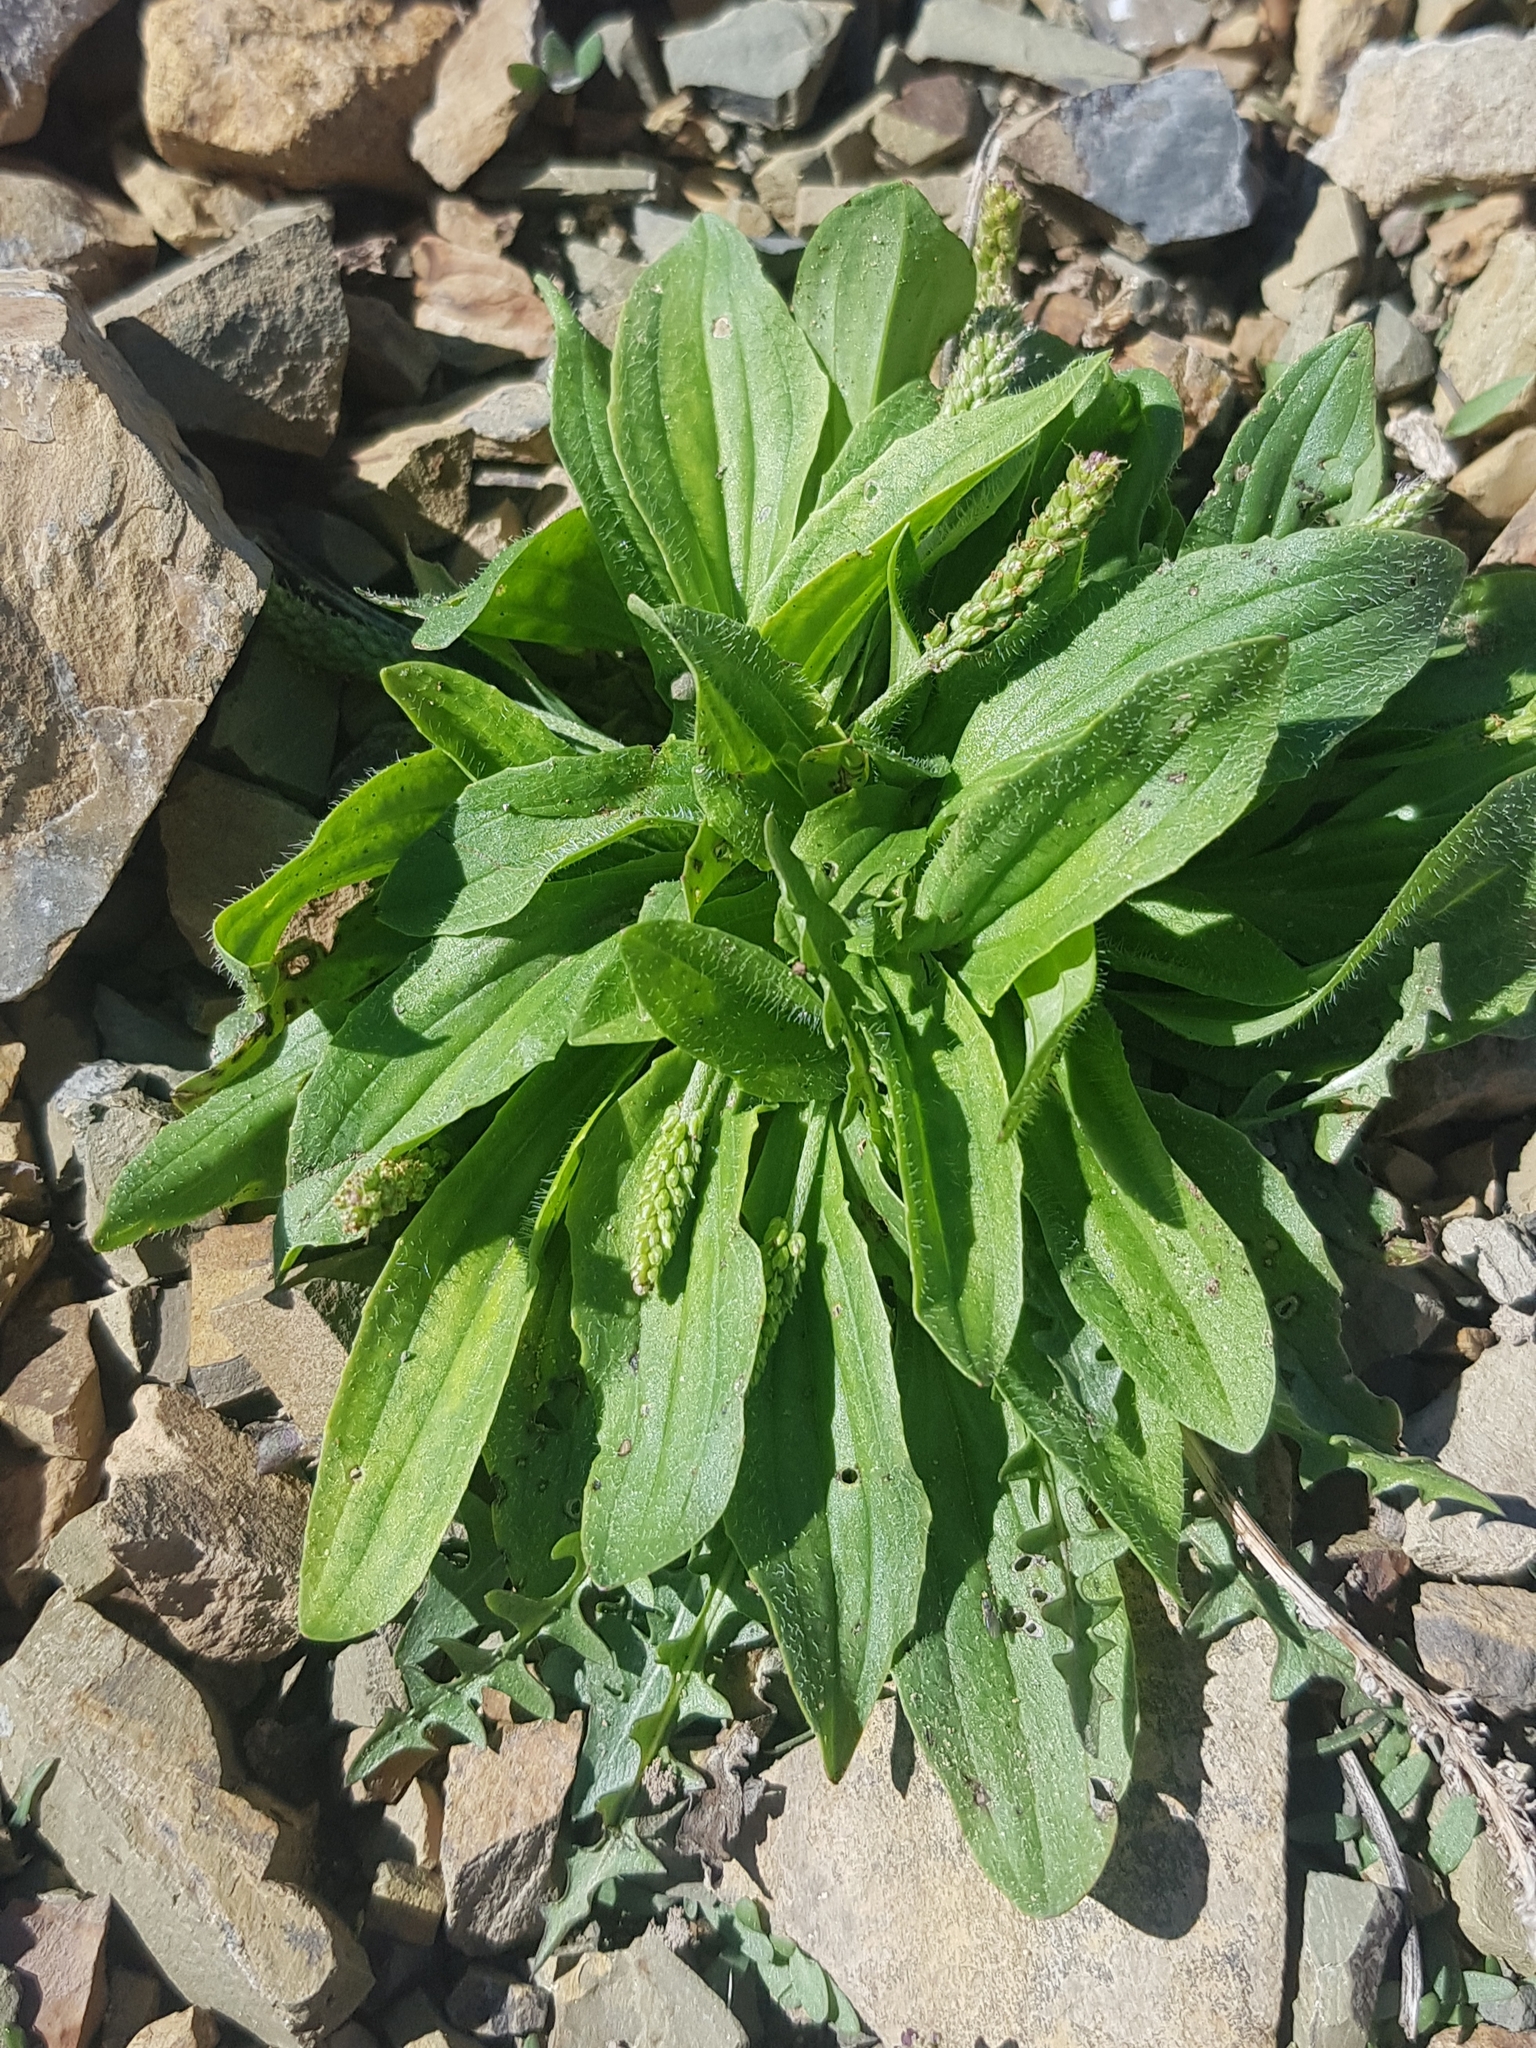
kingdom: Plantae
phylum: Tracheophyta
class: Magnoliopsida
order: Lamiales
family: Plantaginaceae
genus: Plantago
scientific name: Plantago depressa
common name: Depressed plantain
